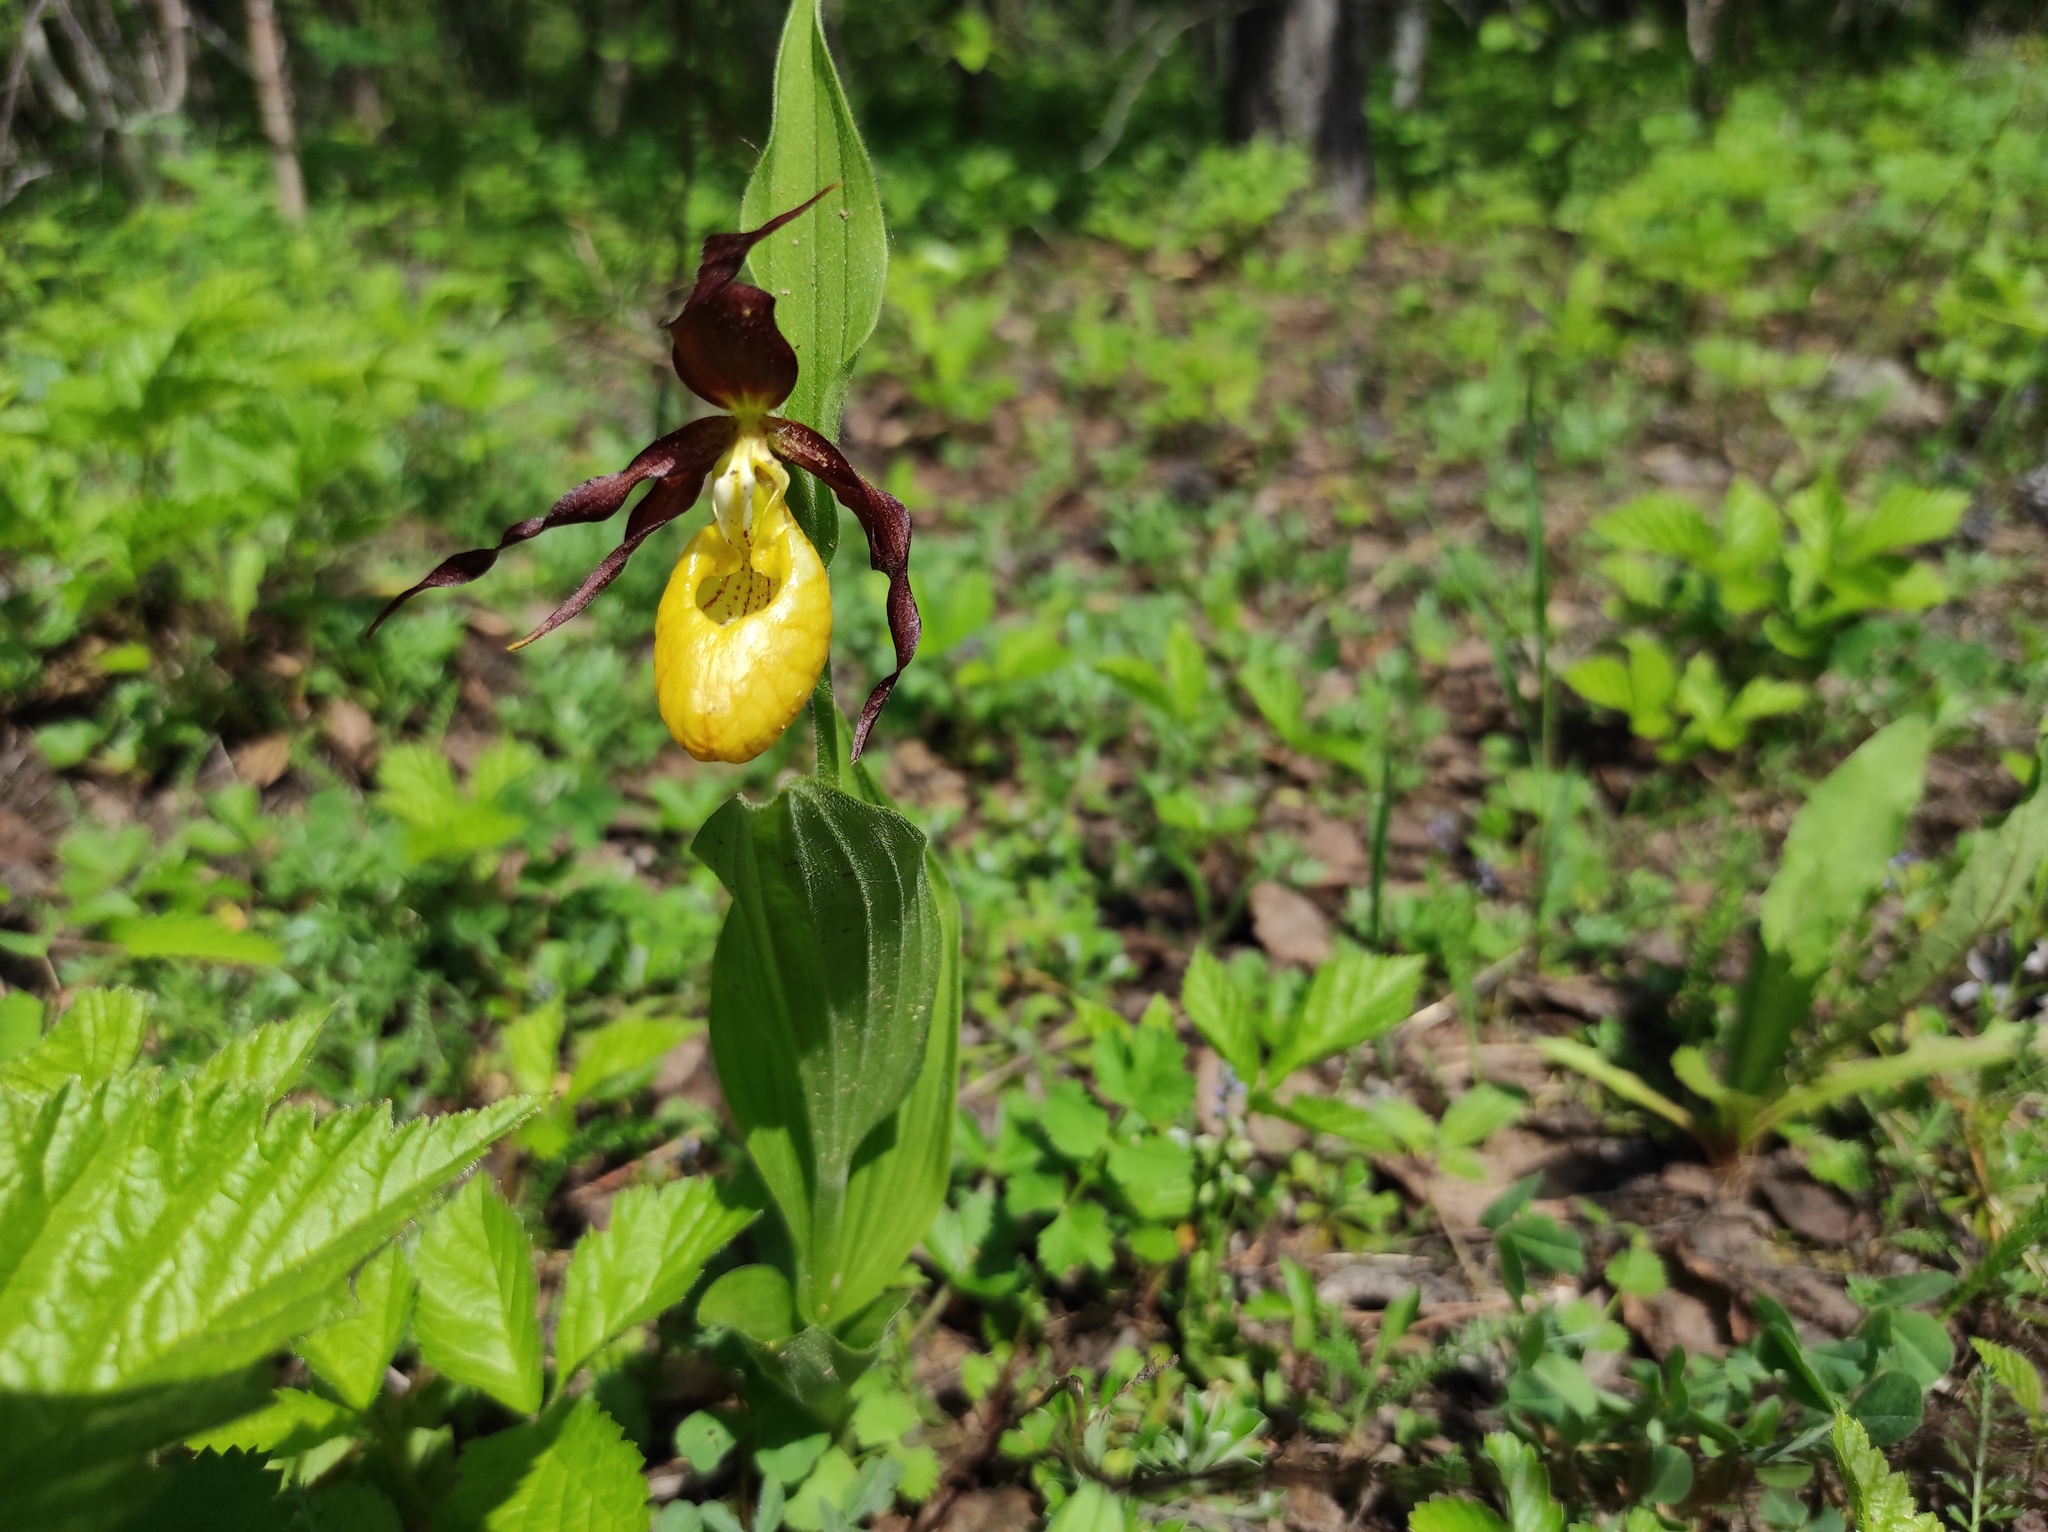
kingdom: Plantae
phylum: Tracheophyta
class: Liliopsida
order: Asparagales
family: Orchidaceae
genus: Cypripedium
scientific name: Cypripedium calceolus
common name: Lady's-slipper
